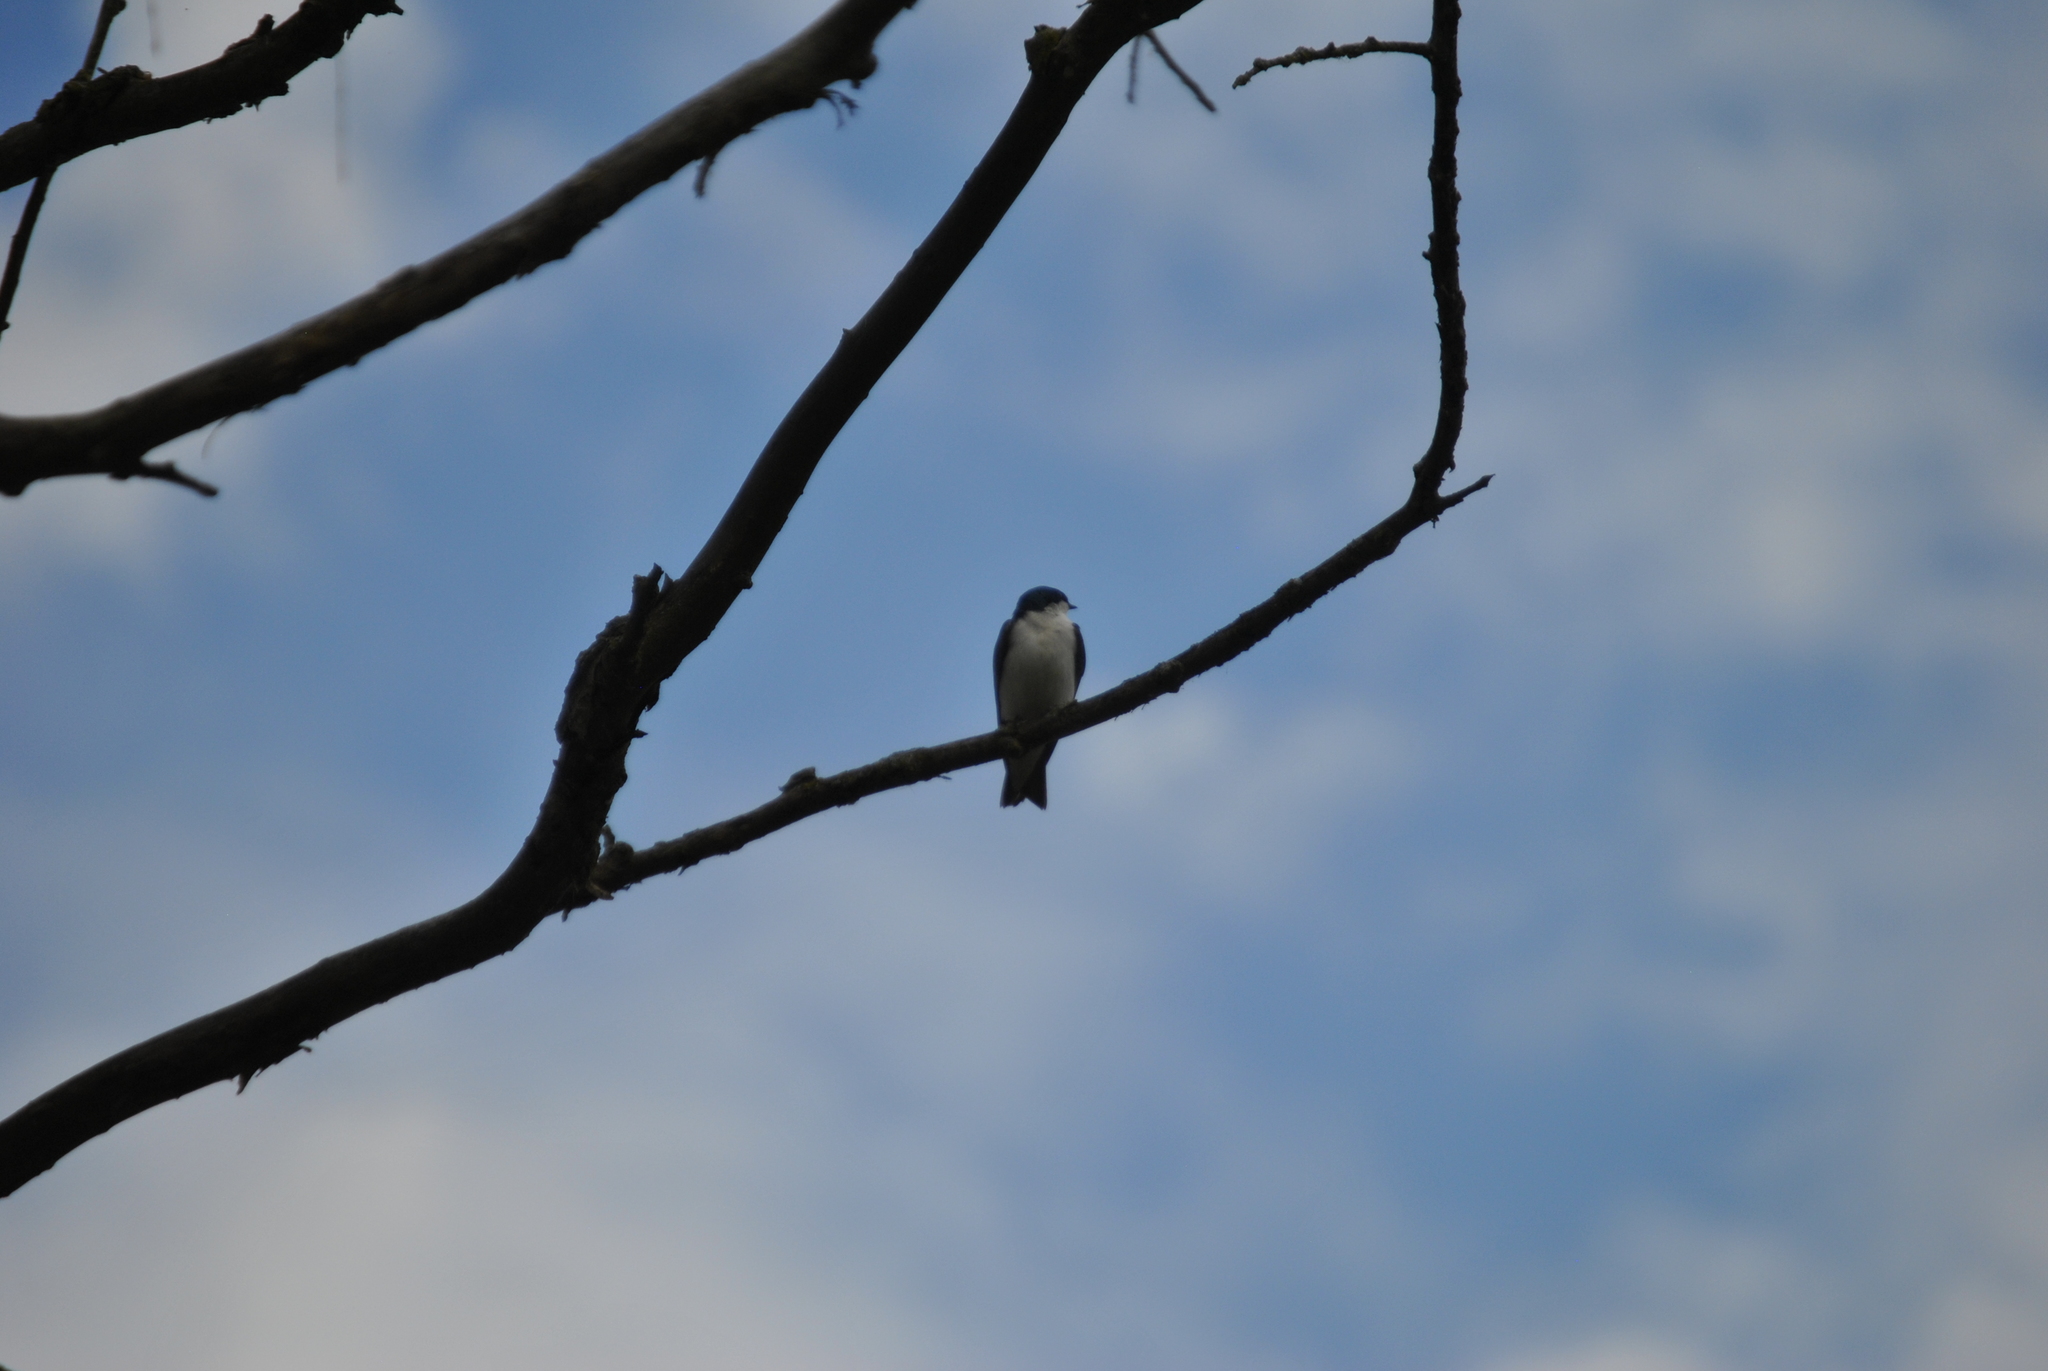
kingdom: Animalia
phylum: Chordata
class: Aves
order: Passeriformes
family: Hirundinidae
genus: Tachycineta
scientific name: Tachycineta bicolor
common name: Tree swallow
